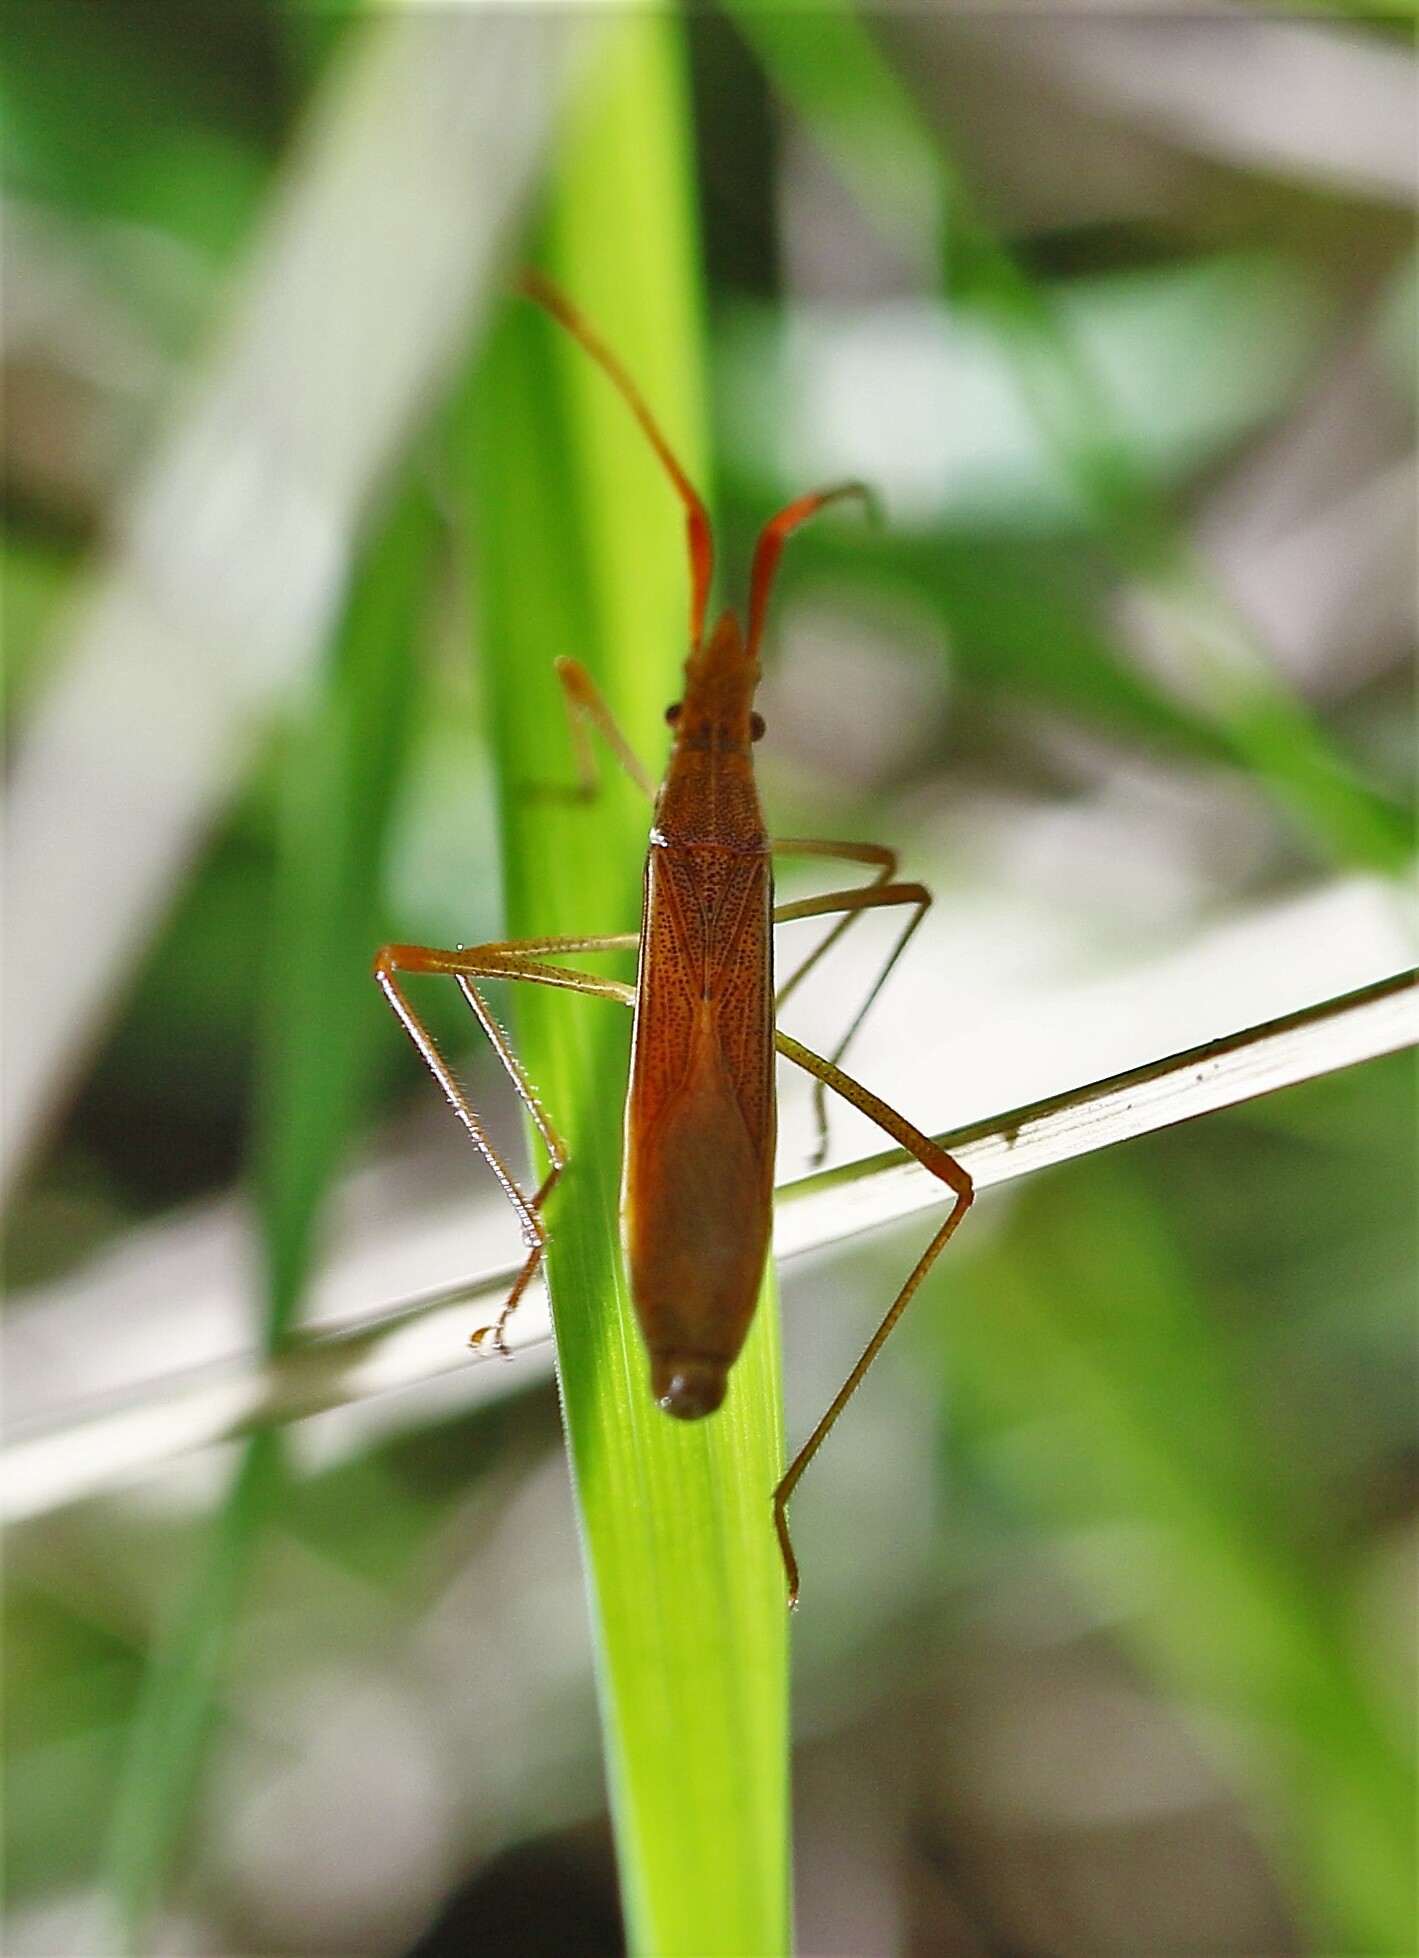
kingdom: Animalia
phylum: Arthropoda
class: Insecta
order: Hemiptera
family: Alydidae
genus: Protenor
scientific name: Protenor belfragei
